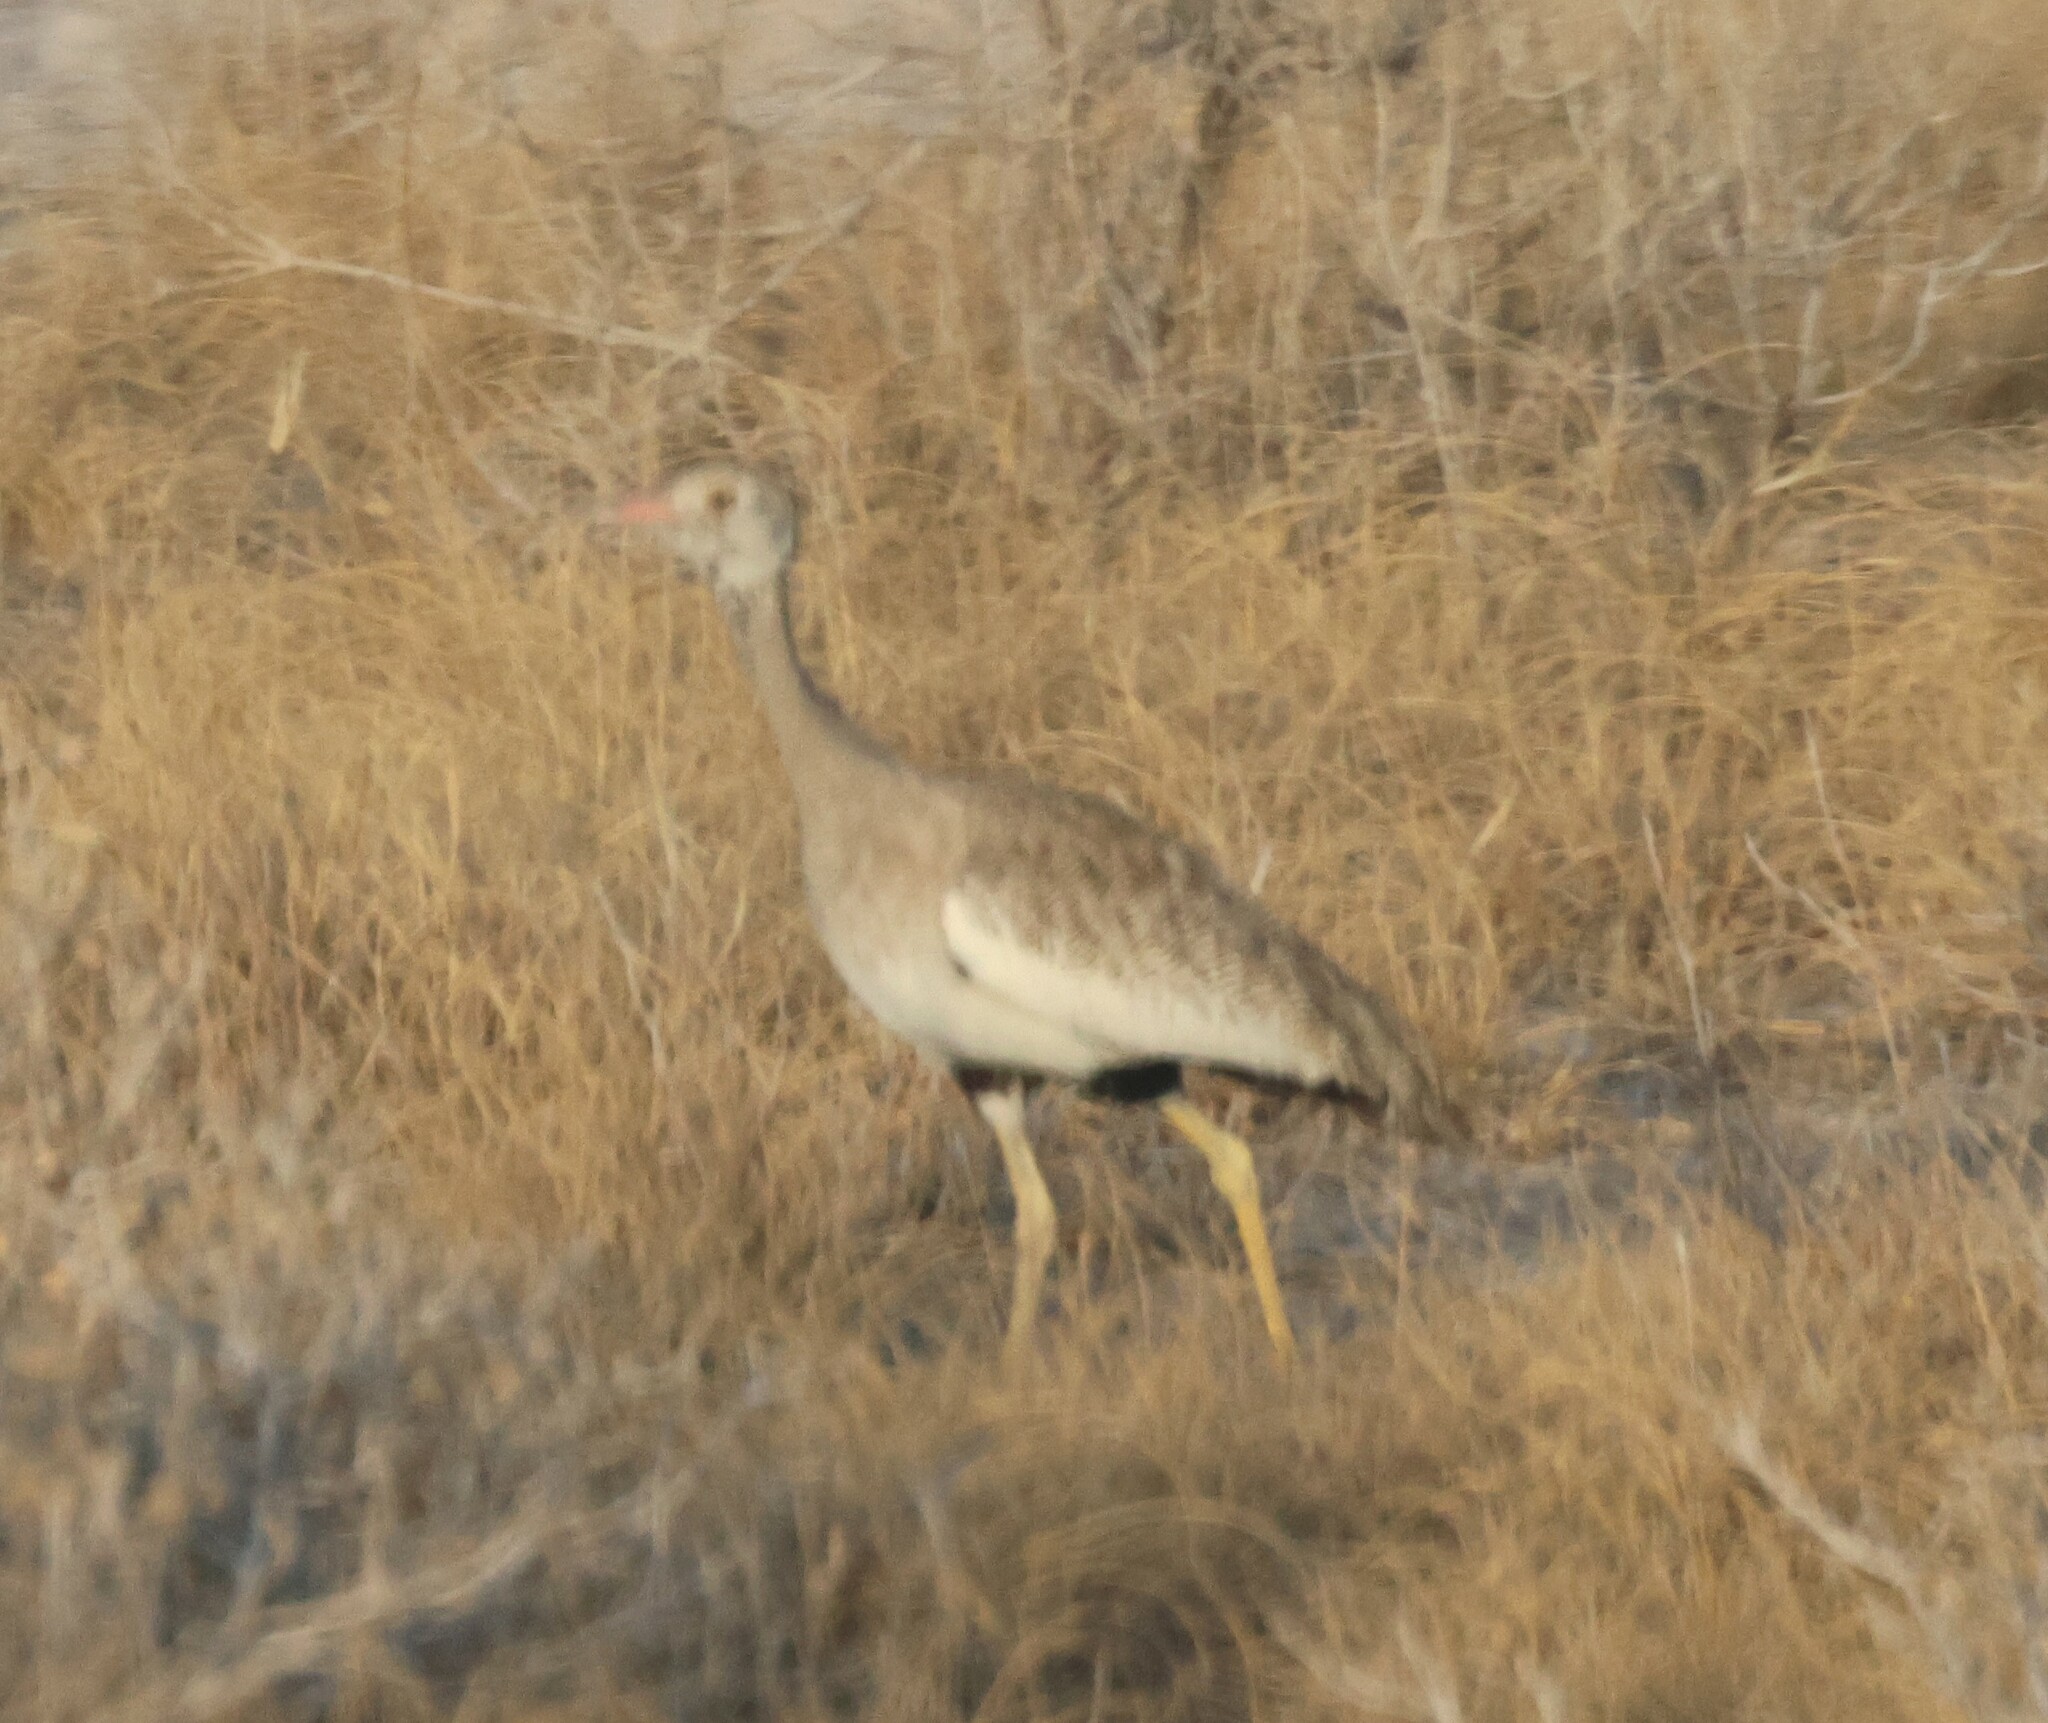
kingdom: Animalia
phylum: Chordata
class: Aves
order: Otidiformes
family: Otididae
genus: Afrotis
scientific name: Afrotis afraoides
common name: Northern black korhaan
